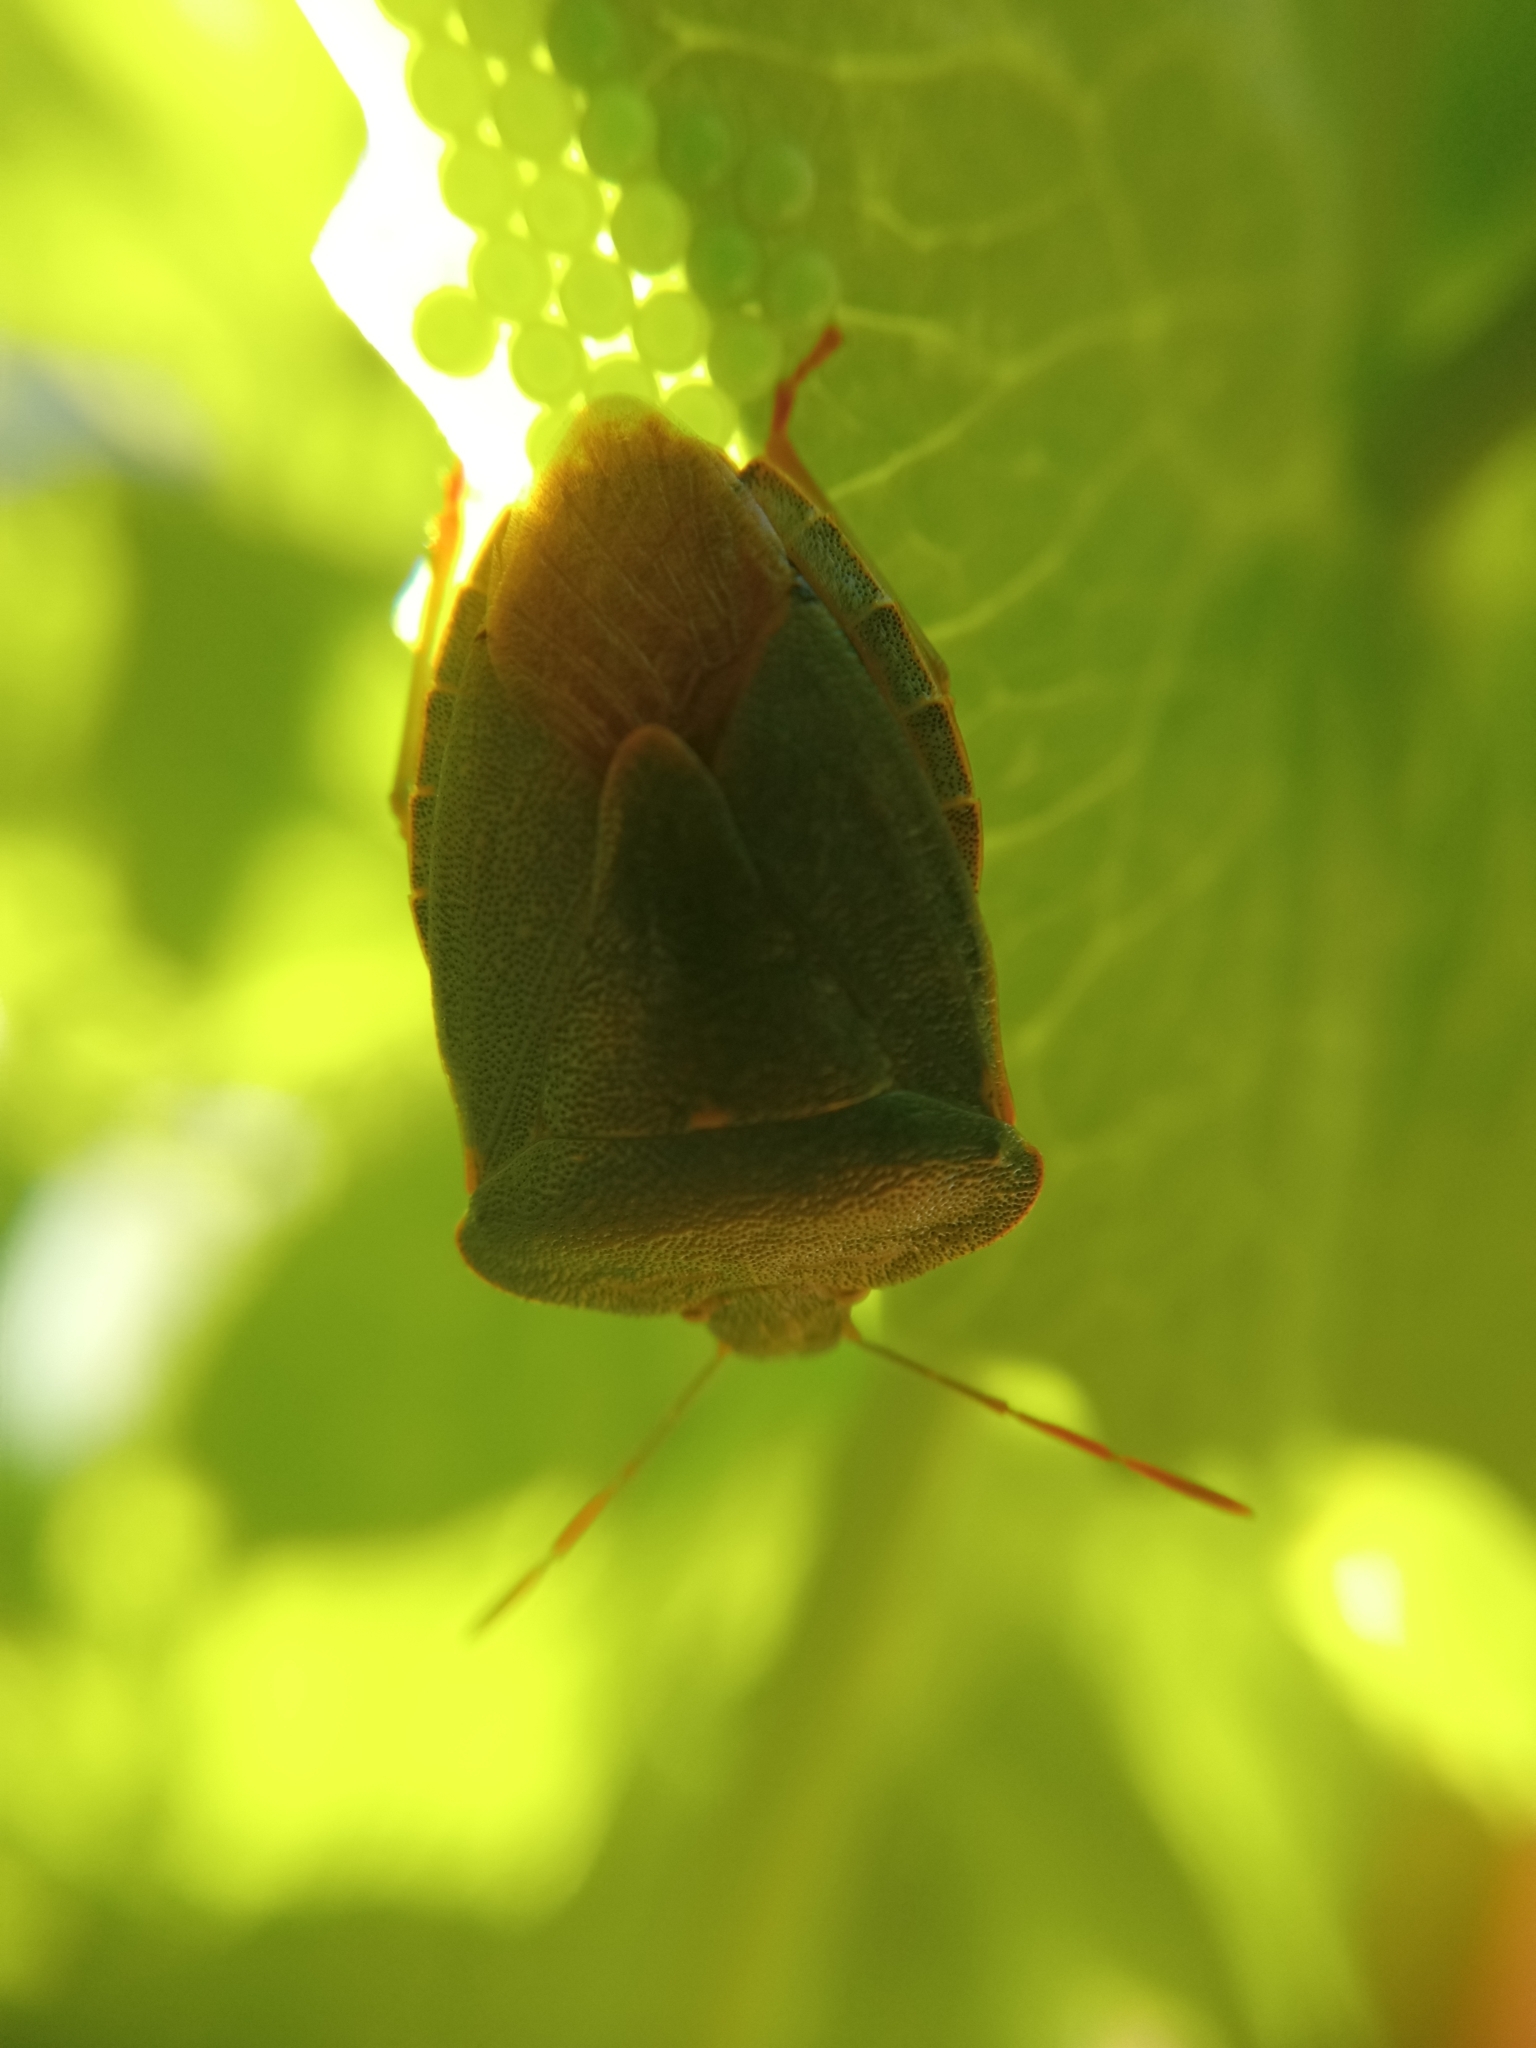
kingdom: Animalia
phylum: Arthropoda
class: Insecta
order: Hemiptera
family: Pentatomidae
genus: Palomena
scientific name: Palomena prasina
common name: Green shieldbug
